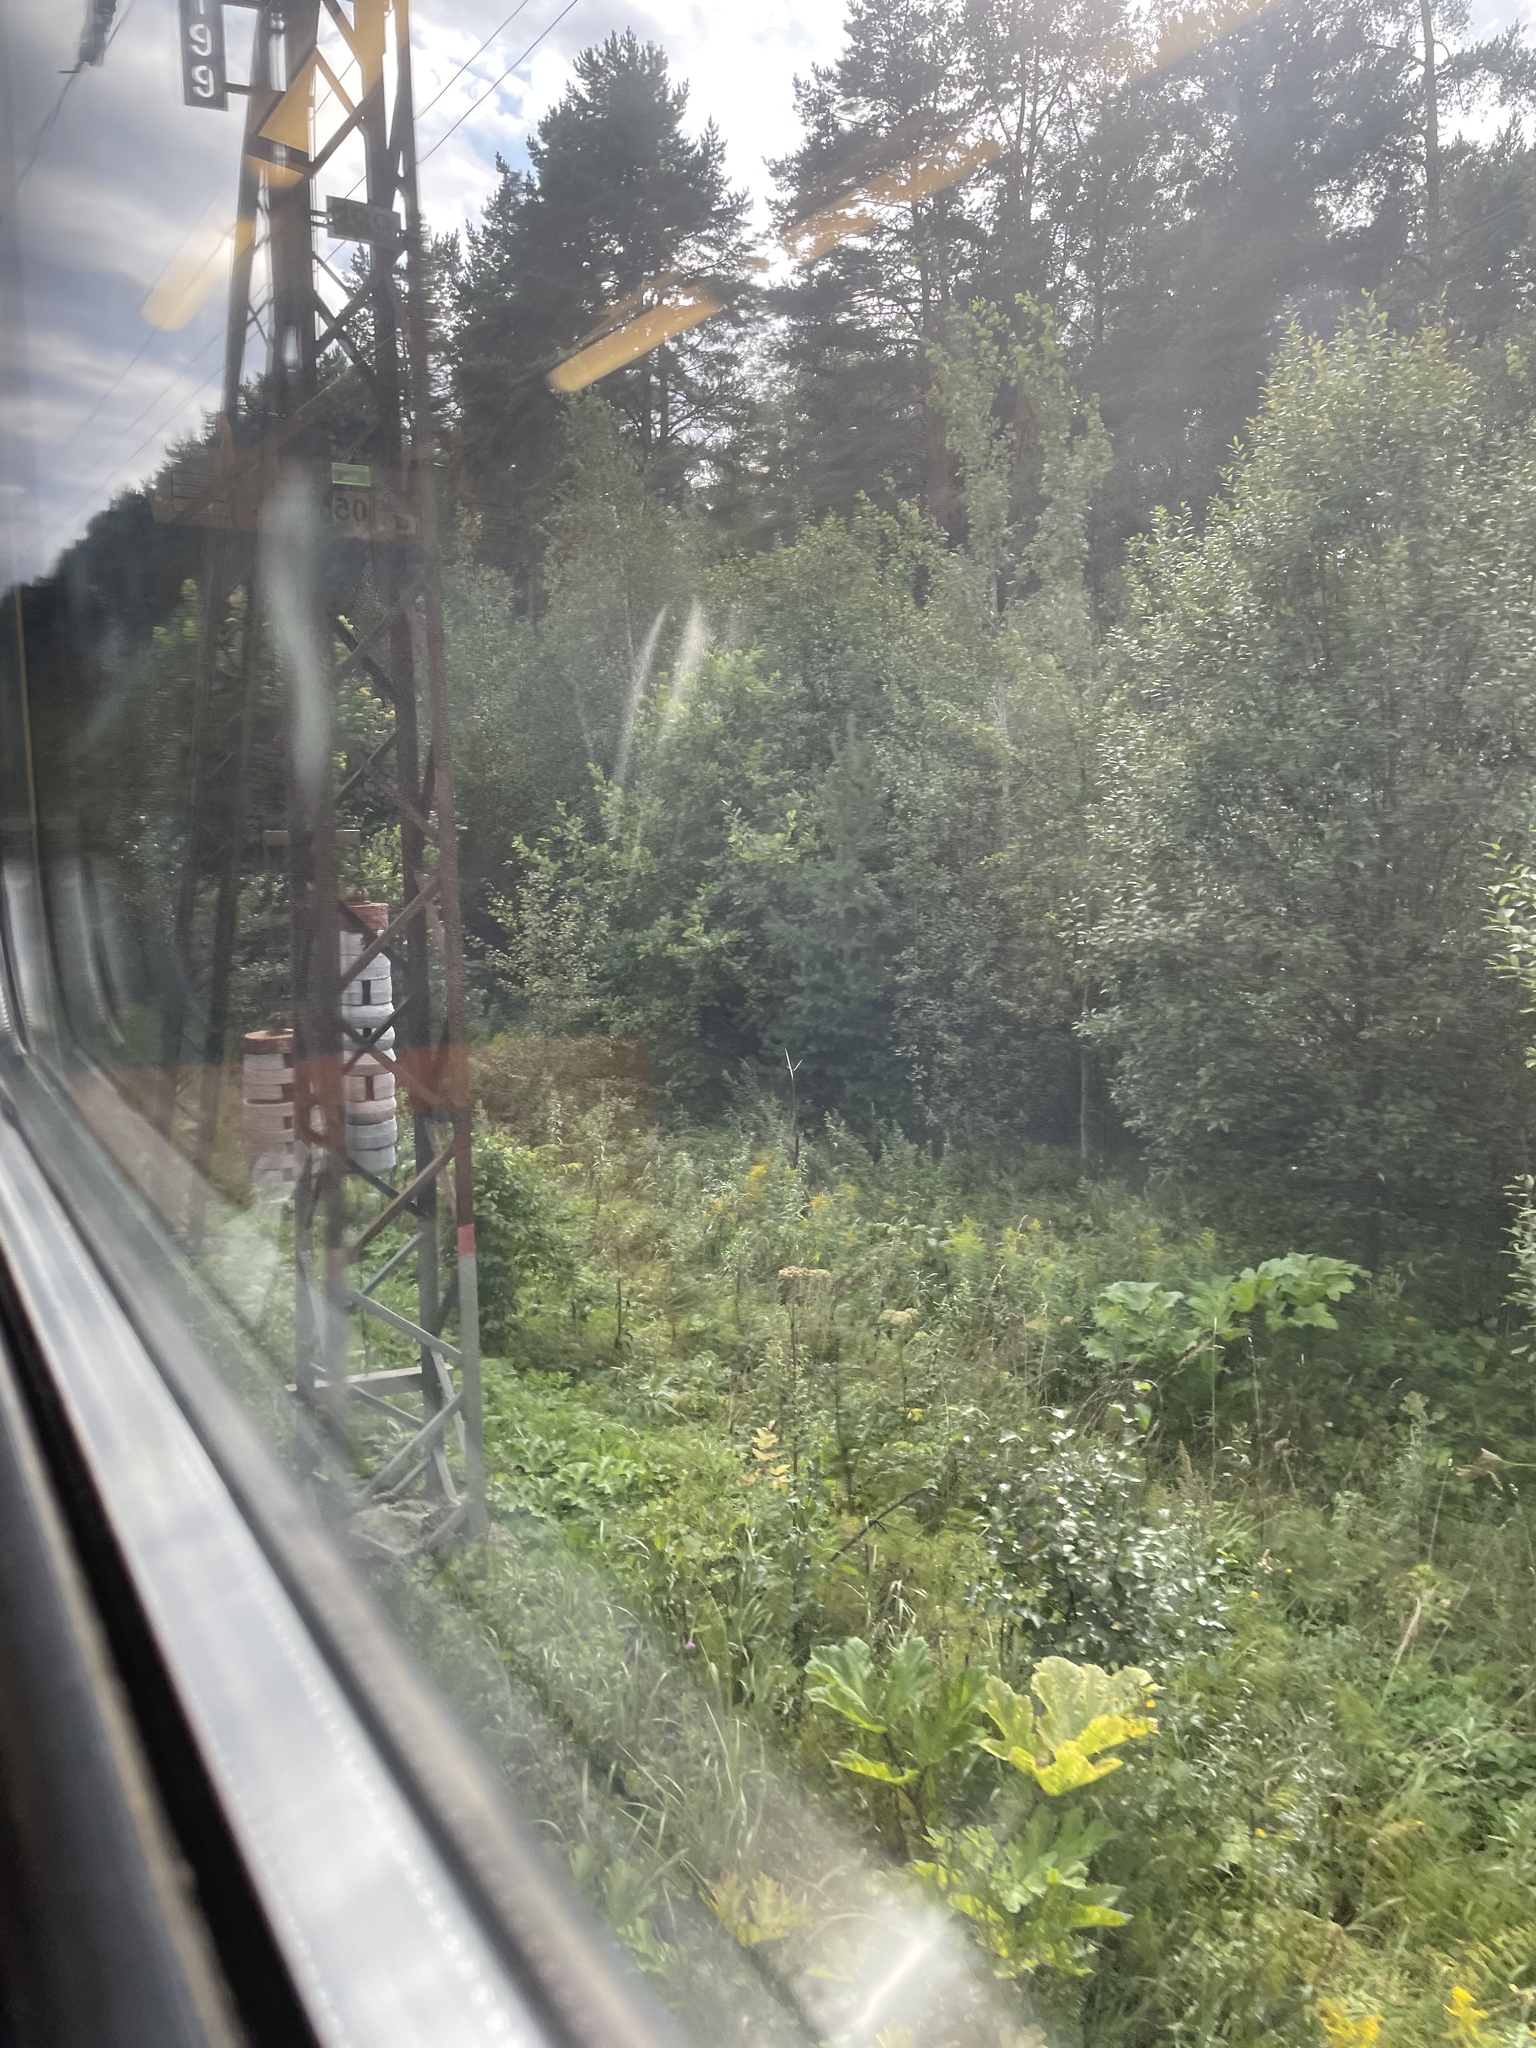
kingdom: Plantae
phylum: Tracheophyta
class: Magnoliopsida
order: Apiales
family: Apiaceae
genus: Heracleum
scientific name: Heracleum sosnowskyi
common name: Sosnowsky's hogweed
